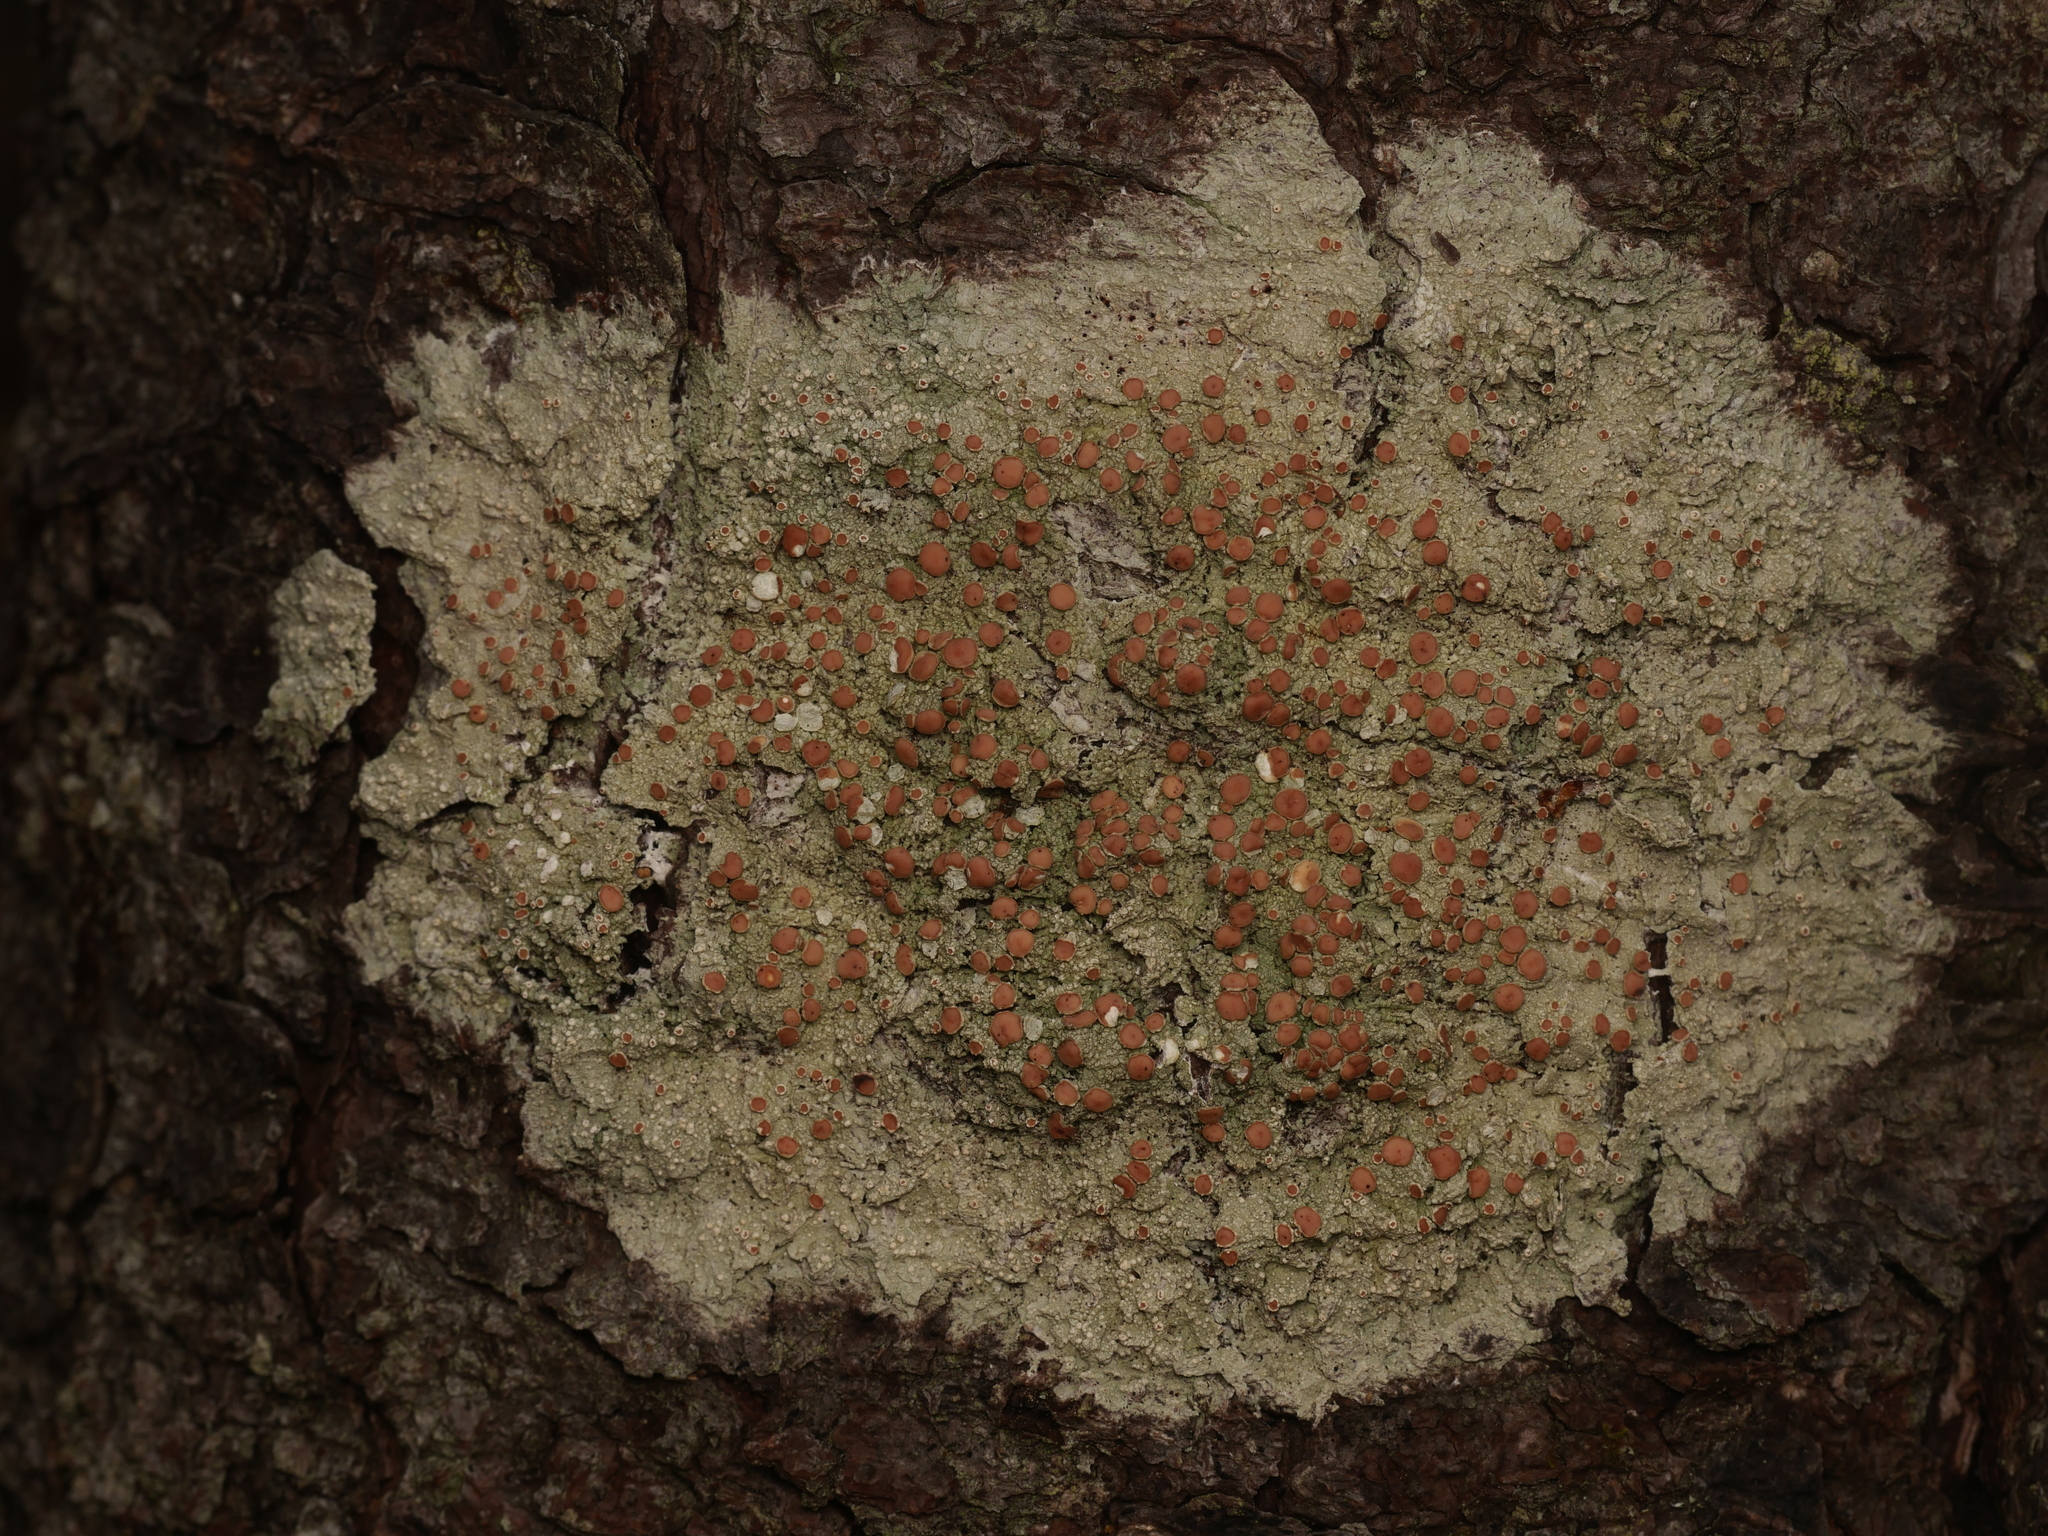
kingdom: Fungi
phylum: Ascomycota
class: Lecanoromycetes
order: Lecanorales
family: Sarrameanaceae
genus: Loxospora
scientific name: Loxospora ochrophaea
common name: Eastern ragged-rim lichen
